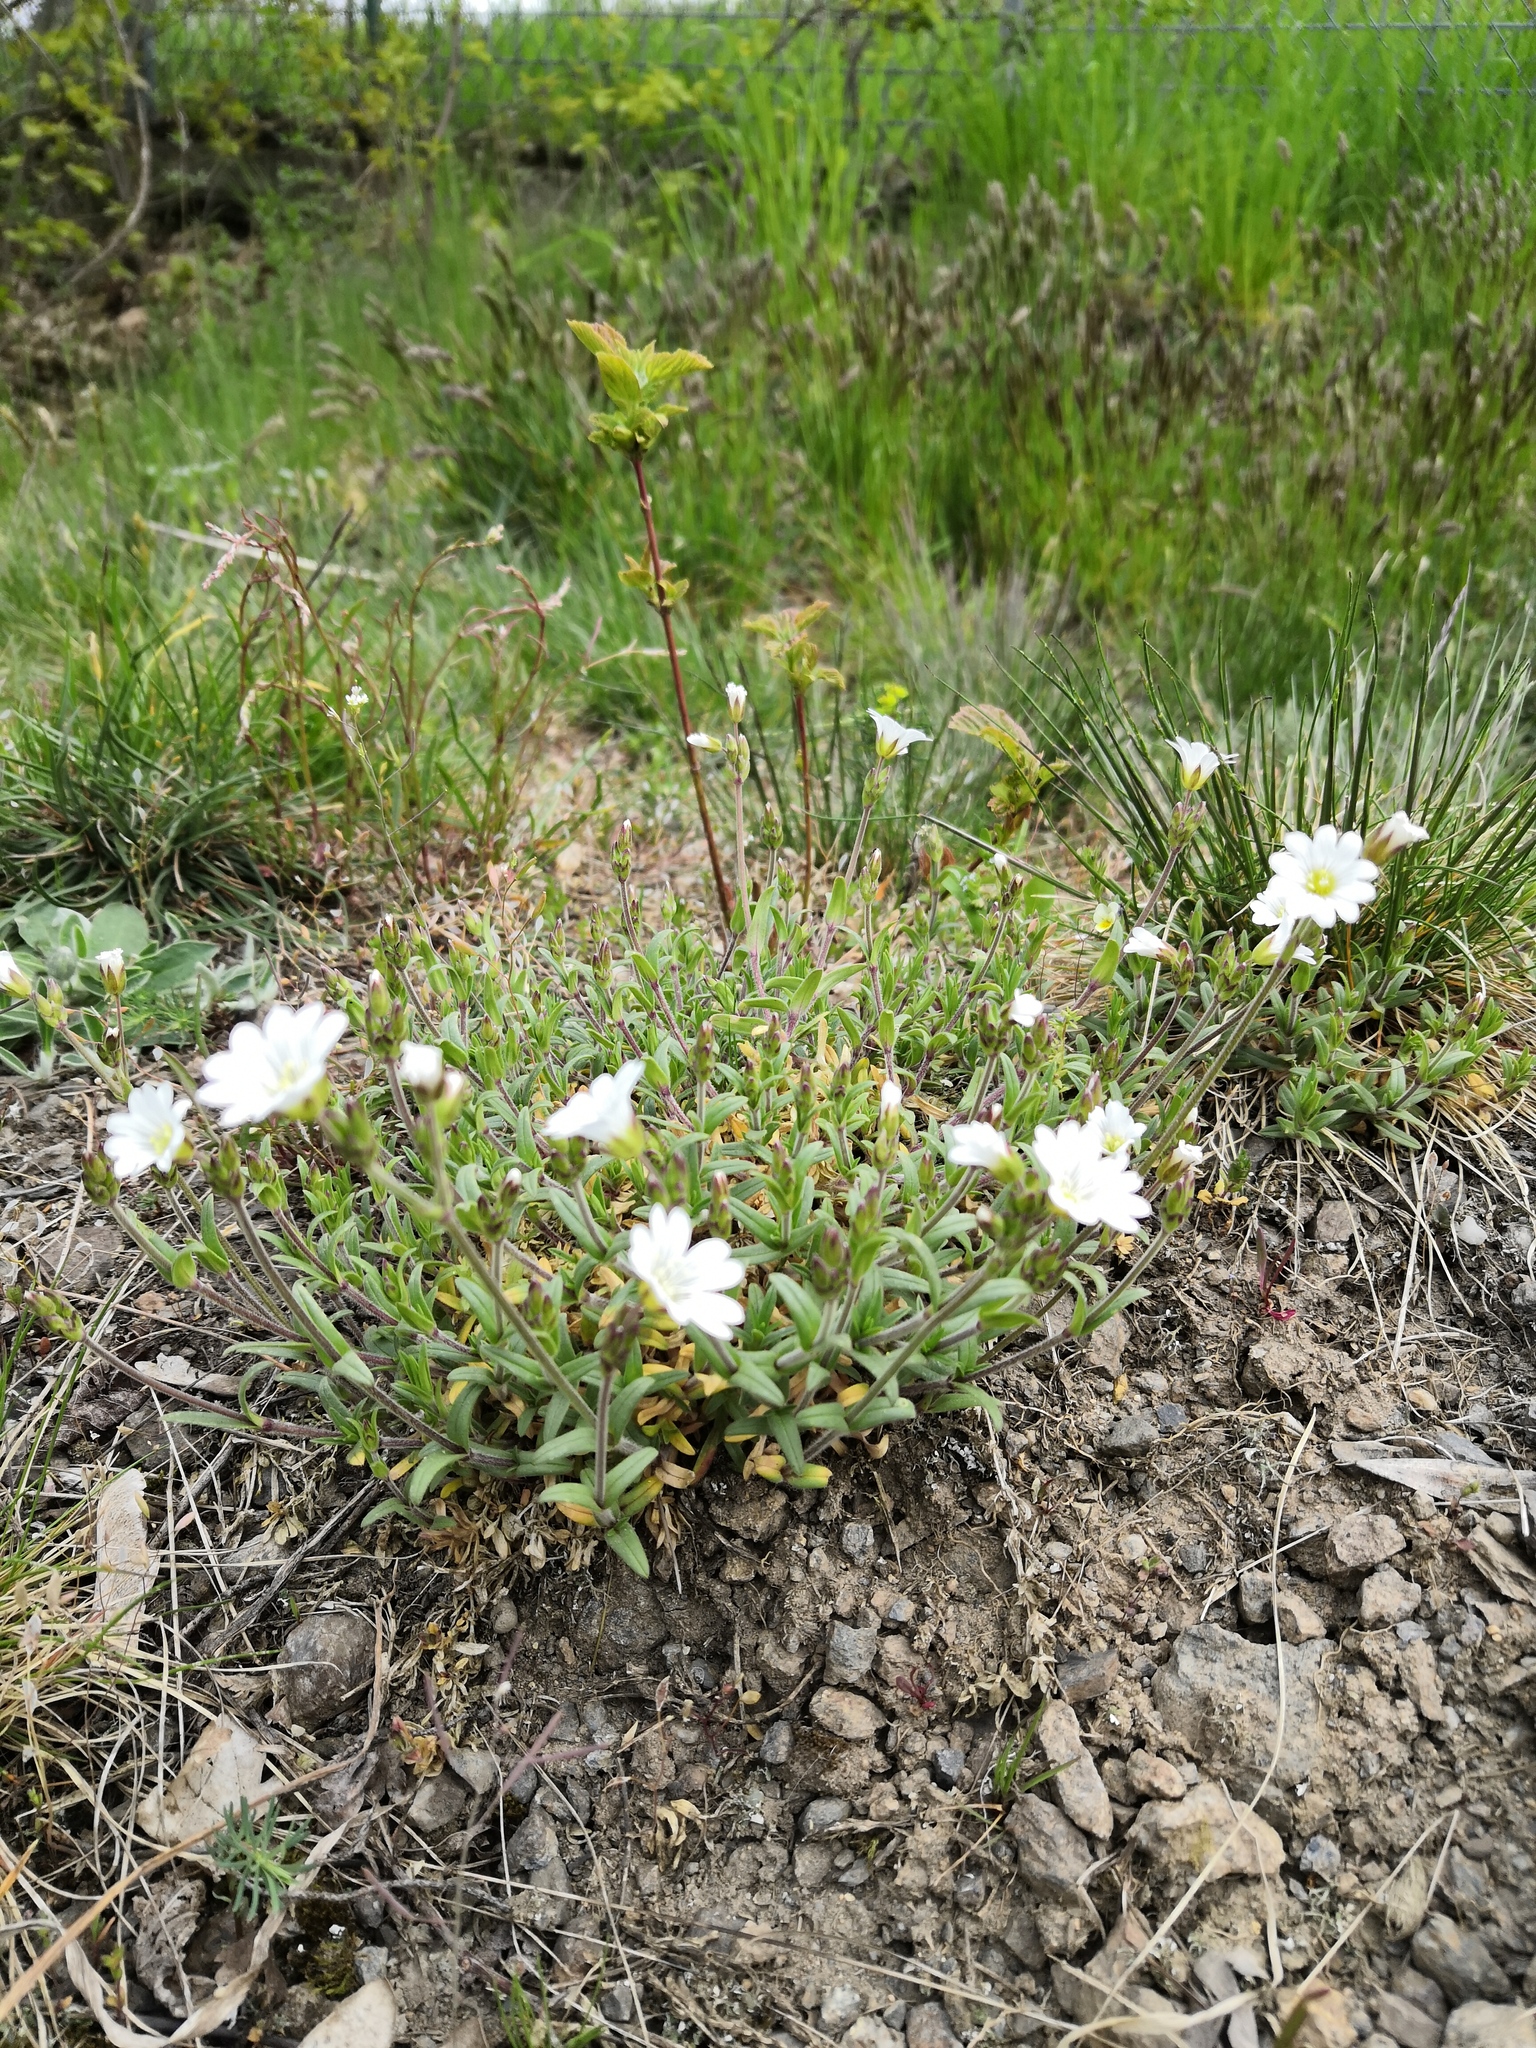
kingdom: Plantae
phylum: Tracheophyta
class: Magnoliopsida
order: Caryophyllales
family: Caryophyllaceae
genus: Cerastium
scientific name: Cerastium arvense
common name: Field mouse-ear
